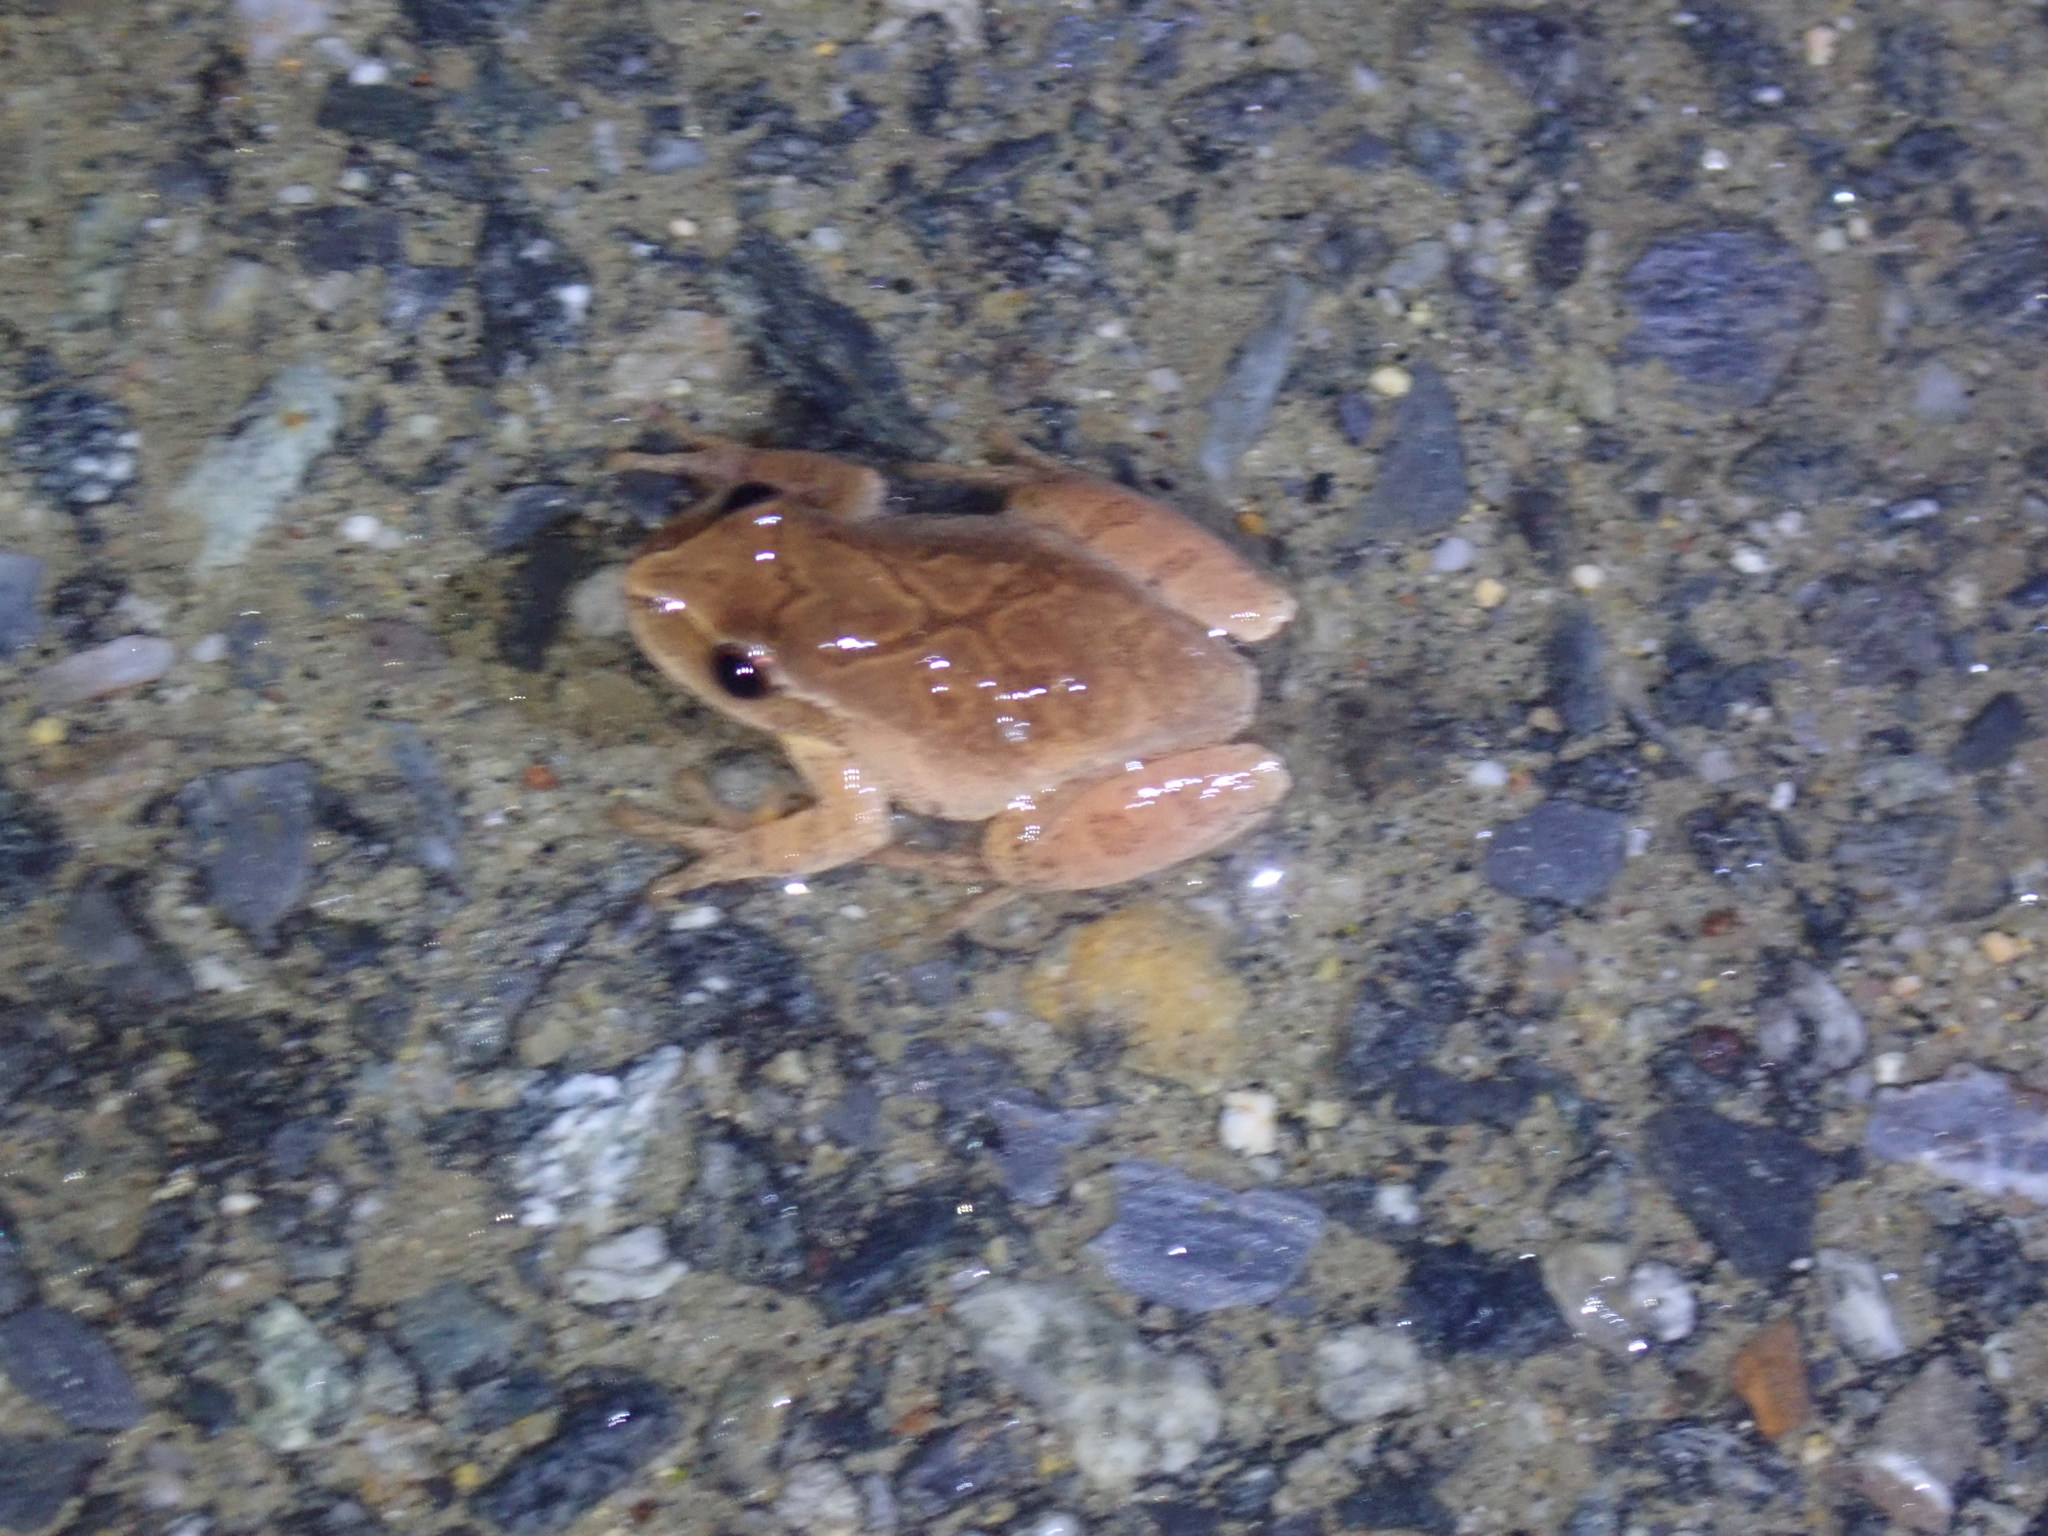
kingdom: Animalia
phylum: Chordata
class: Amphibia
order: Anura
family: Hylidae
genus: Pseudacris
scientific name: Pseudacris crucifer
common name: Spring peeper
